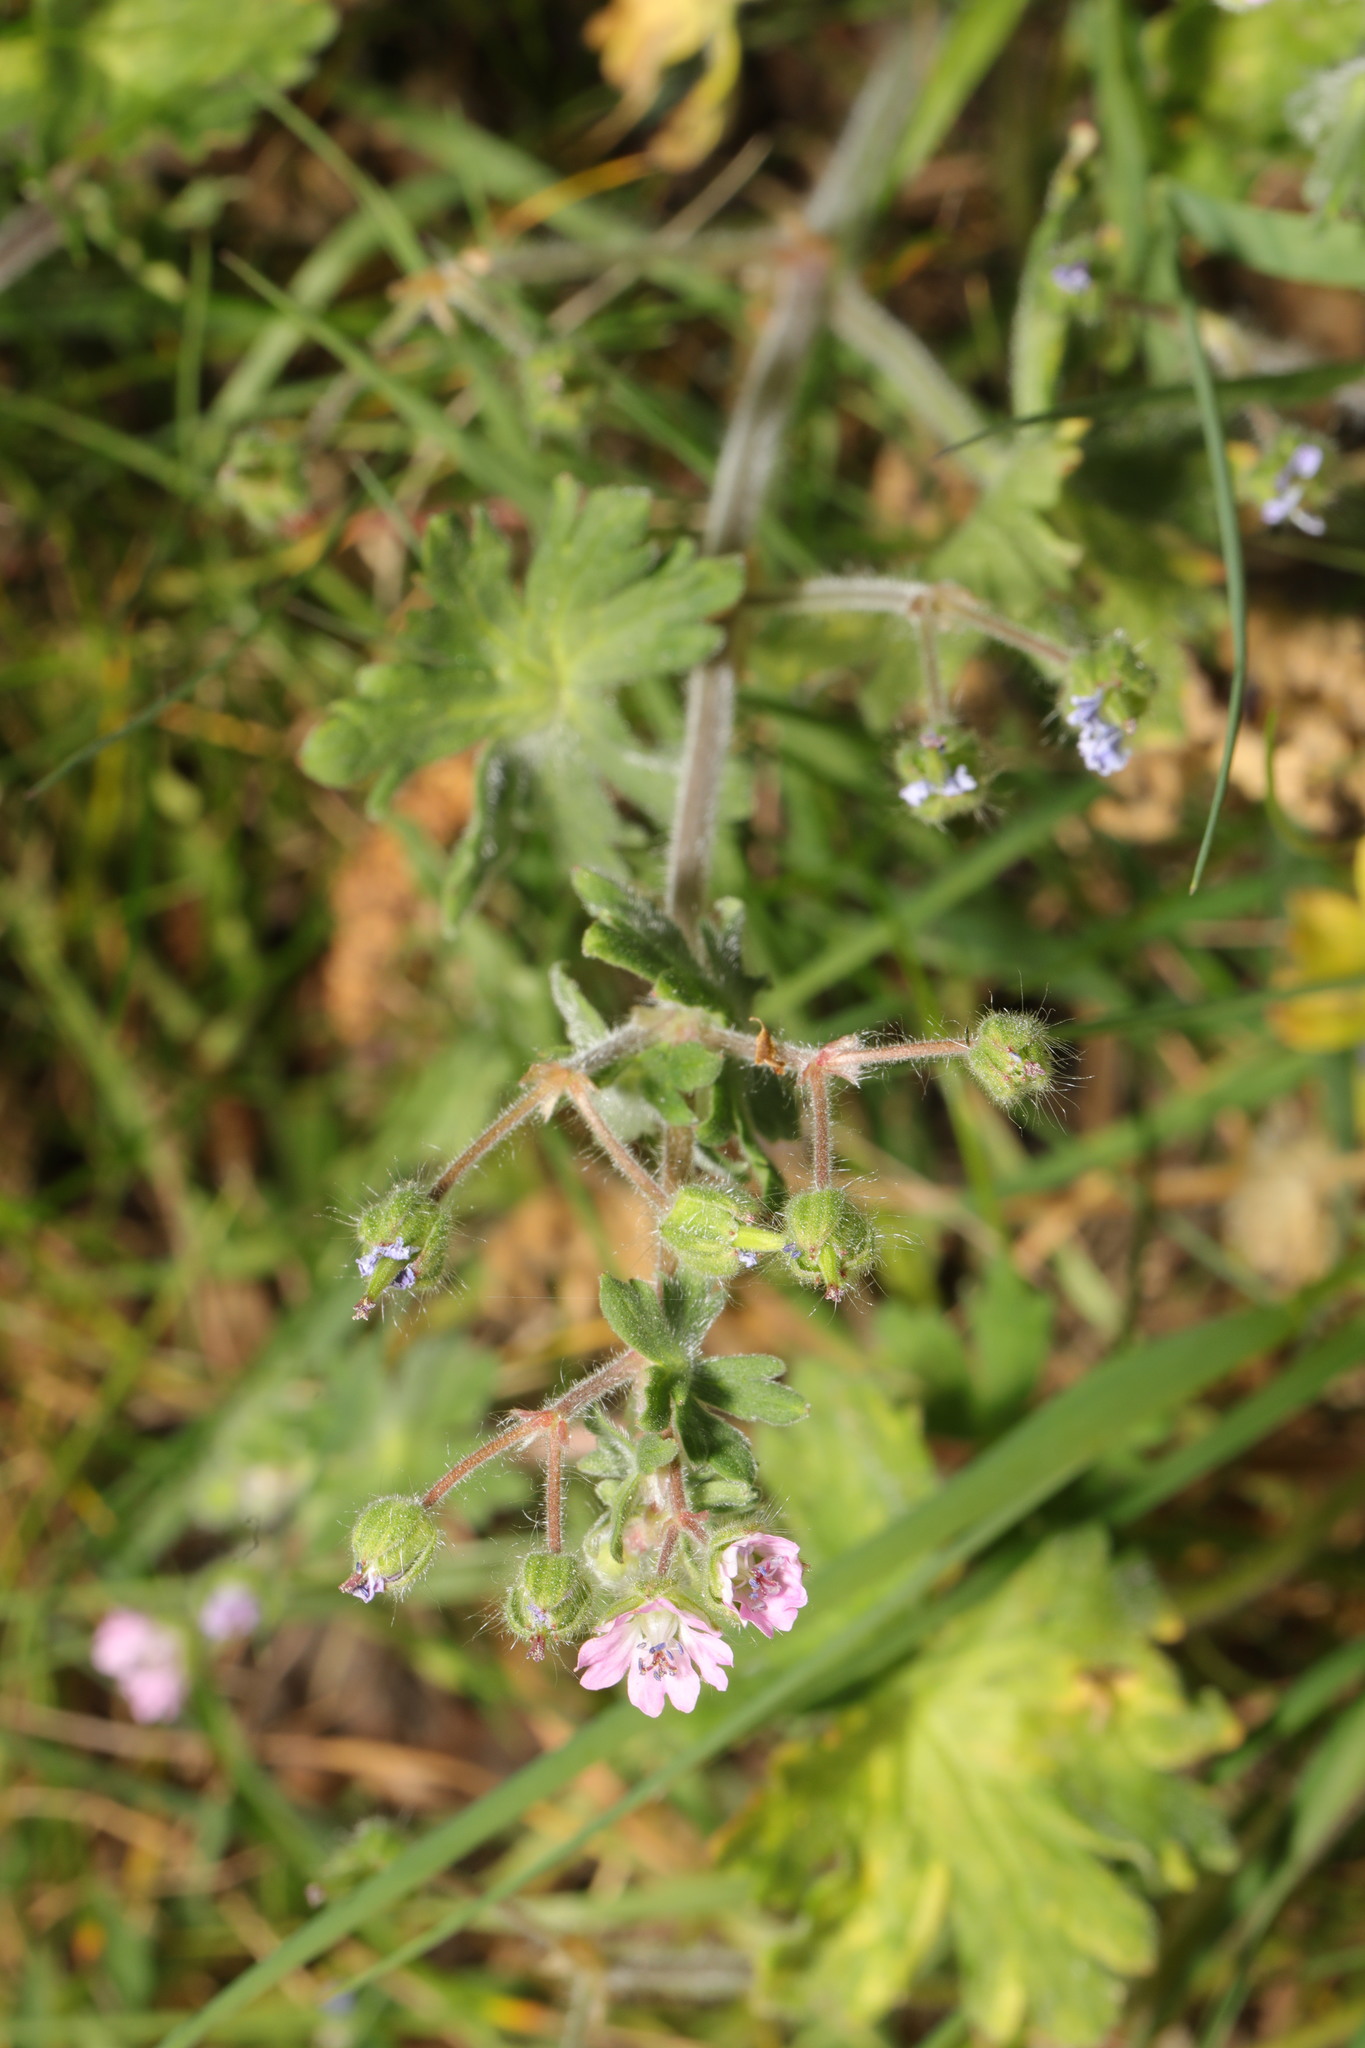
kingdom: Plantae
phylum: Tracheophyta
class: Magnoliopsida
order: Geraniales
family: Geraniaceae
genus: Geranium
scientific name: Geranium molle
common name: Dove's-foot crane's-bill
